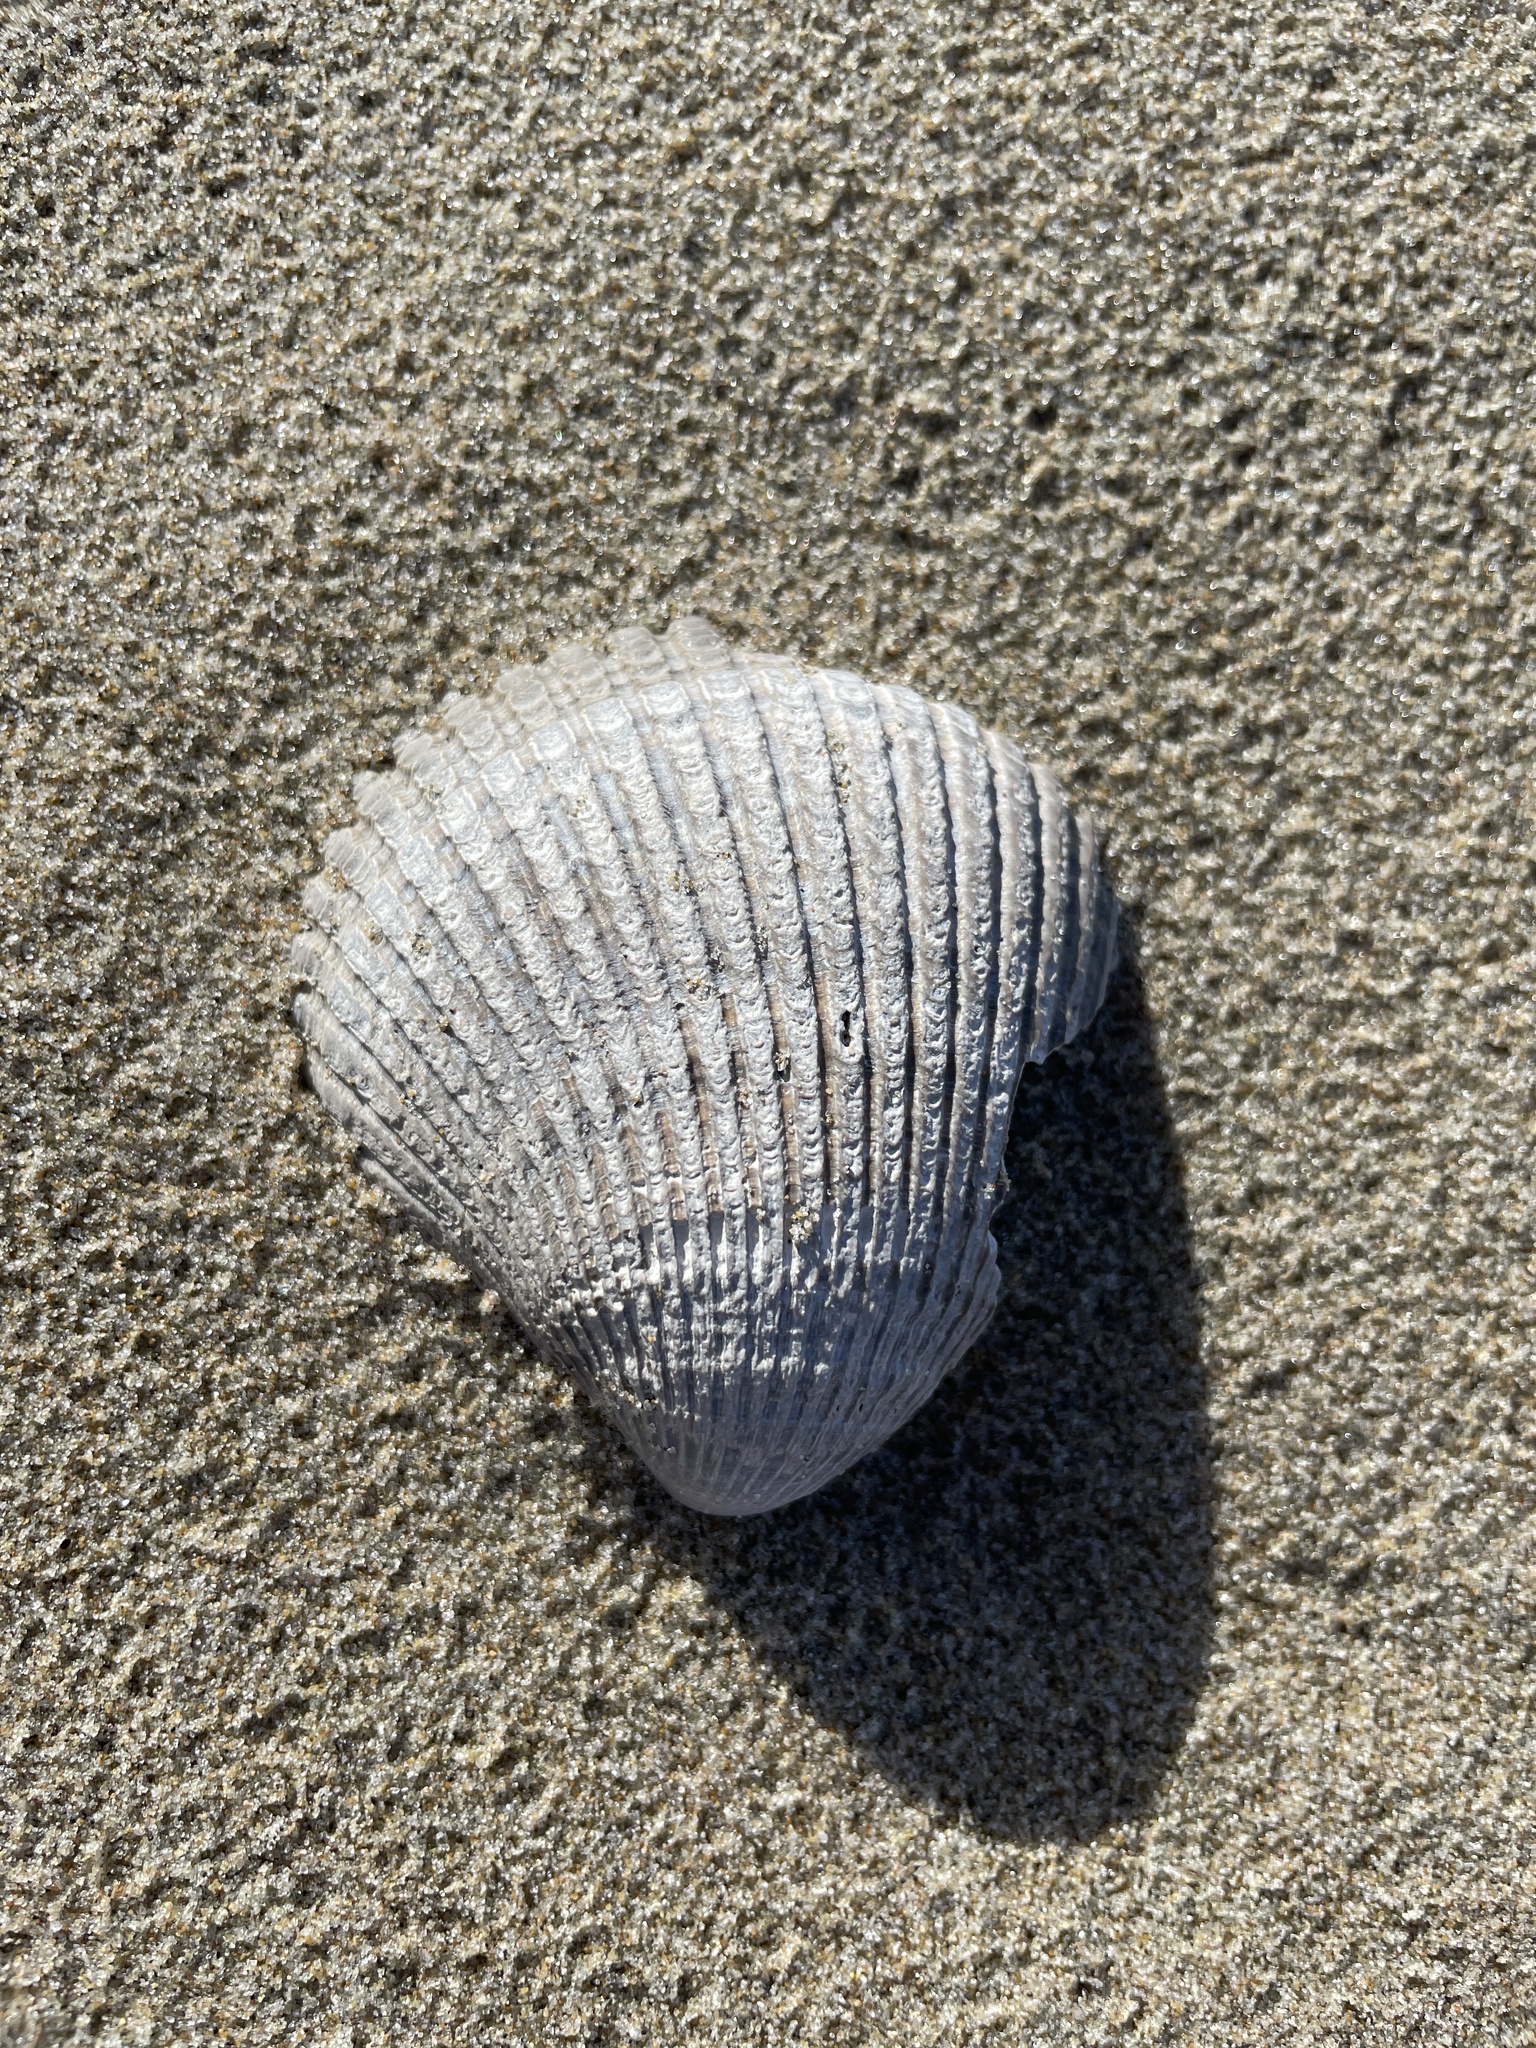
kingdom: Animalia
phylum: Mollusca
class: Bivalvia
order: Cardiida
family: Cardiidae
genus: Clinocardium
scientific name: Clinocardium nuttallii
